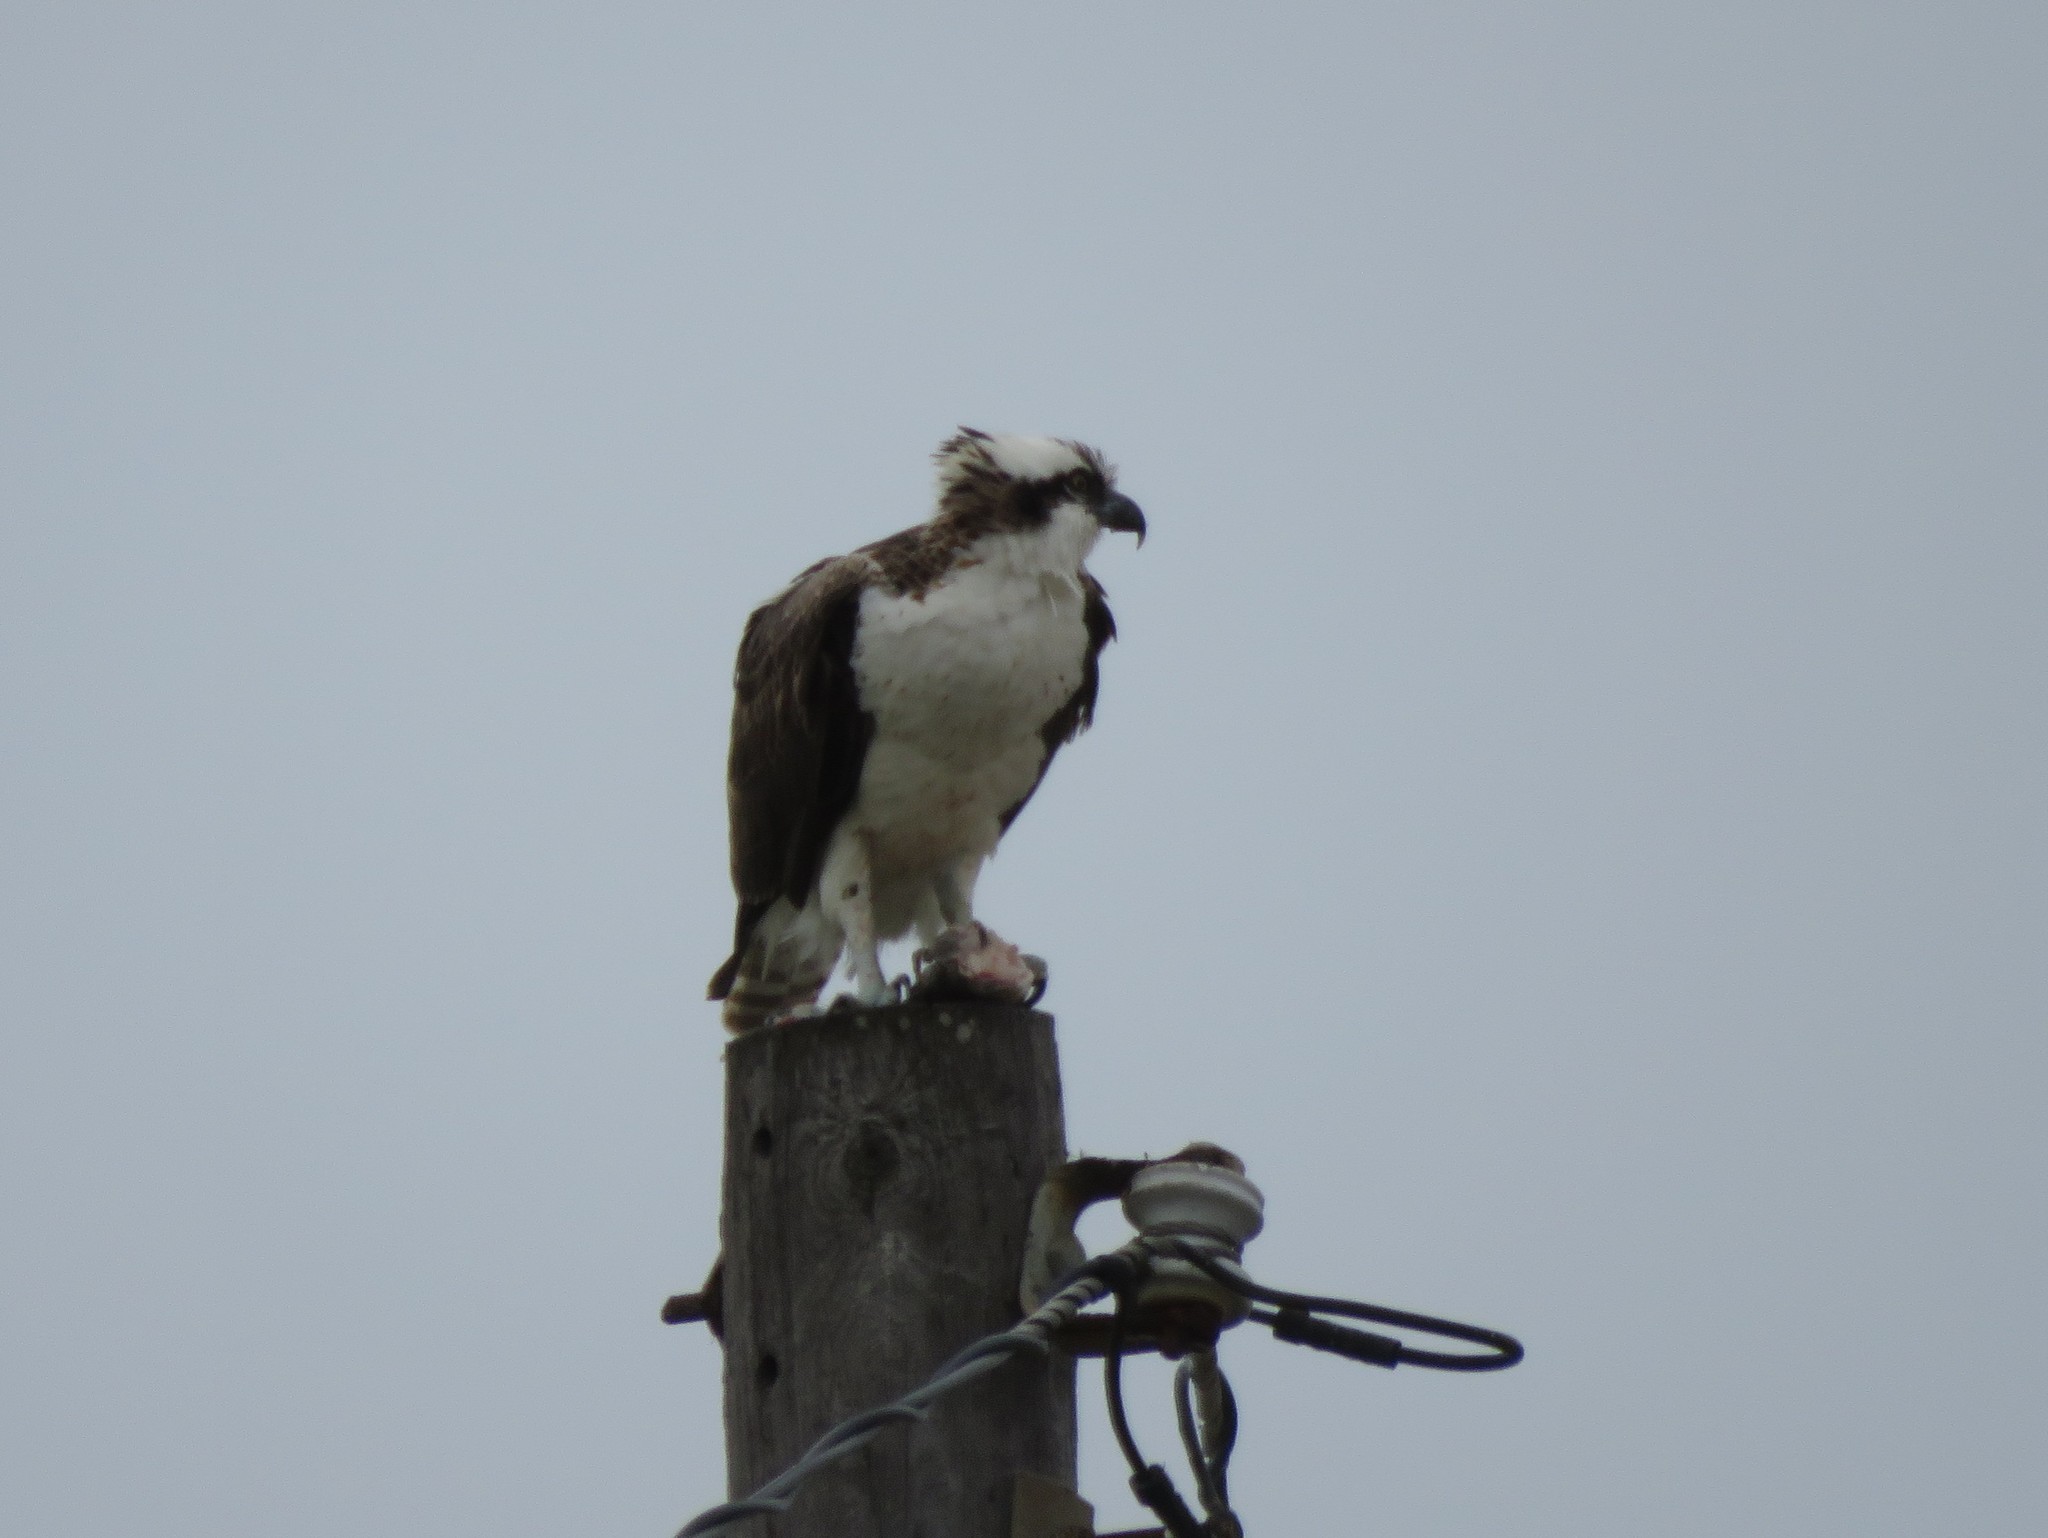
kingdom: Animalia
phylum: Chordata
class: Aves
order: Accipitriformes
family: Pandionidae
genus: Pandion
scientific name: Pandion haliaetus
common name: Osprey
